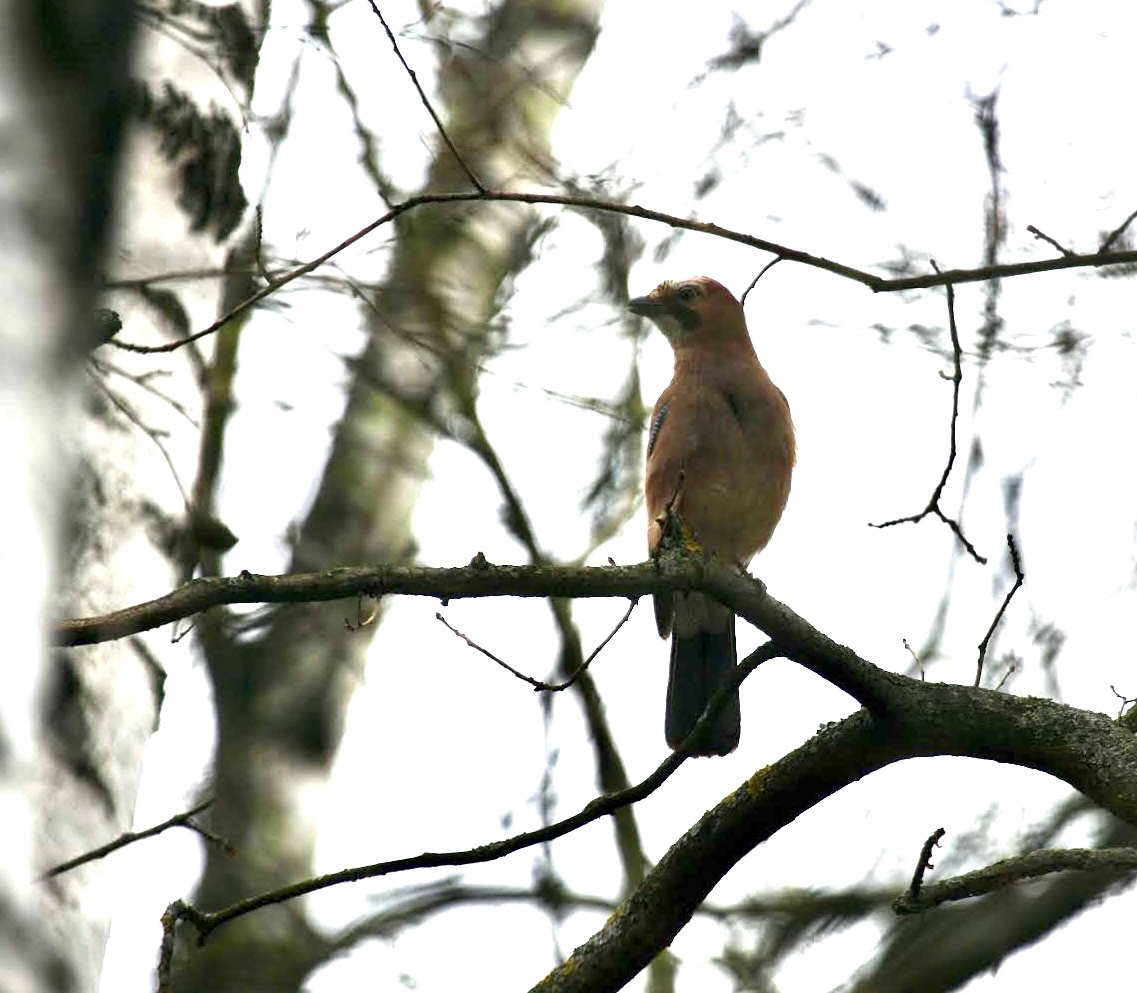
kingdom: Animalia
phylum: Chordata
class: Aves
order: Passeriformes
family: Corvidae
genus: Garrulus
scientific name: Garrulus glandarius
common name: Eurasian jay
